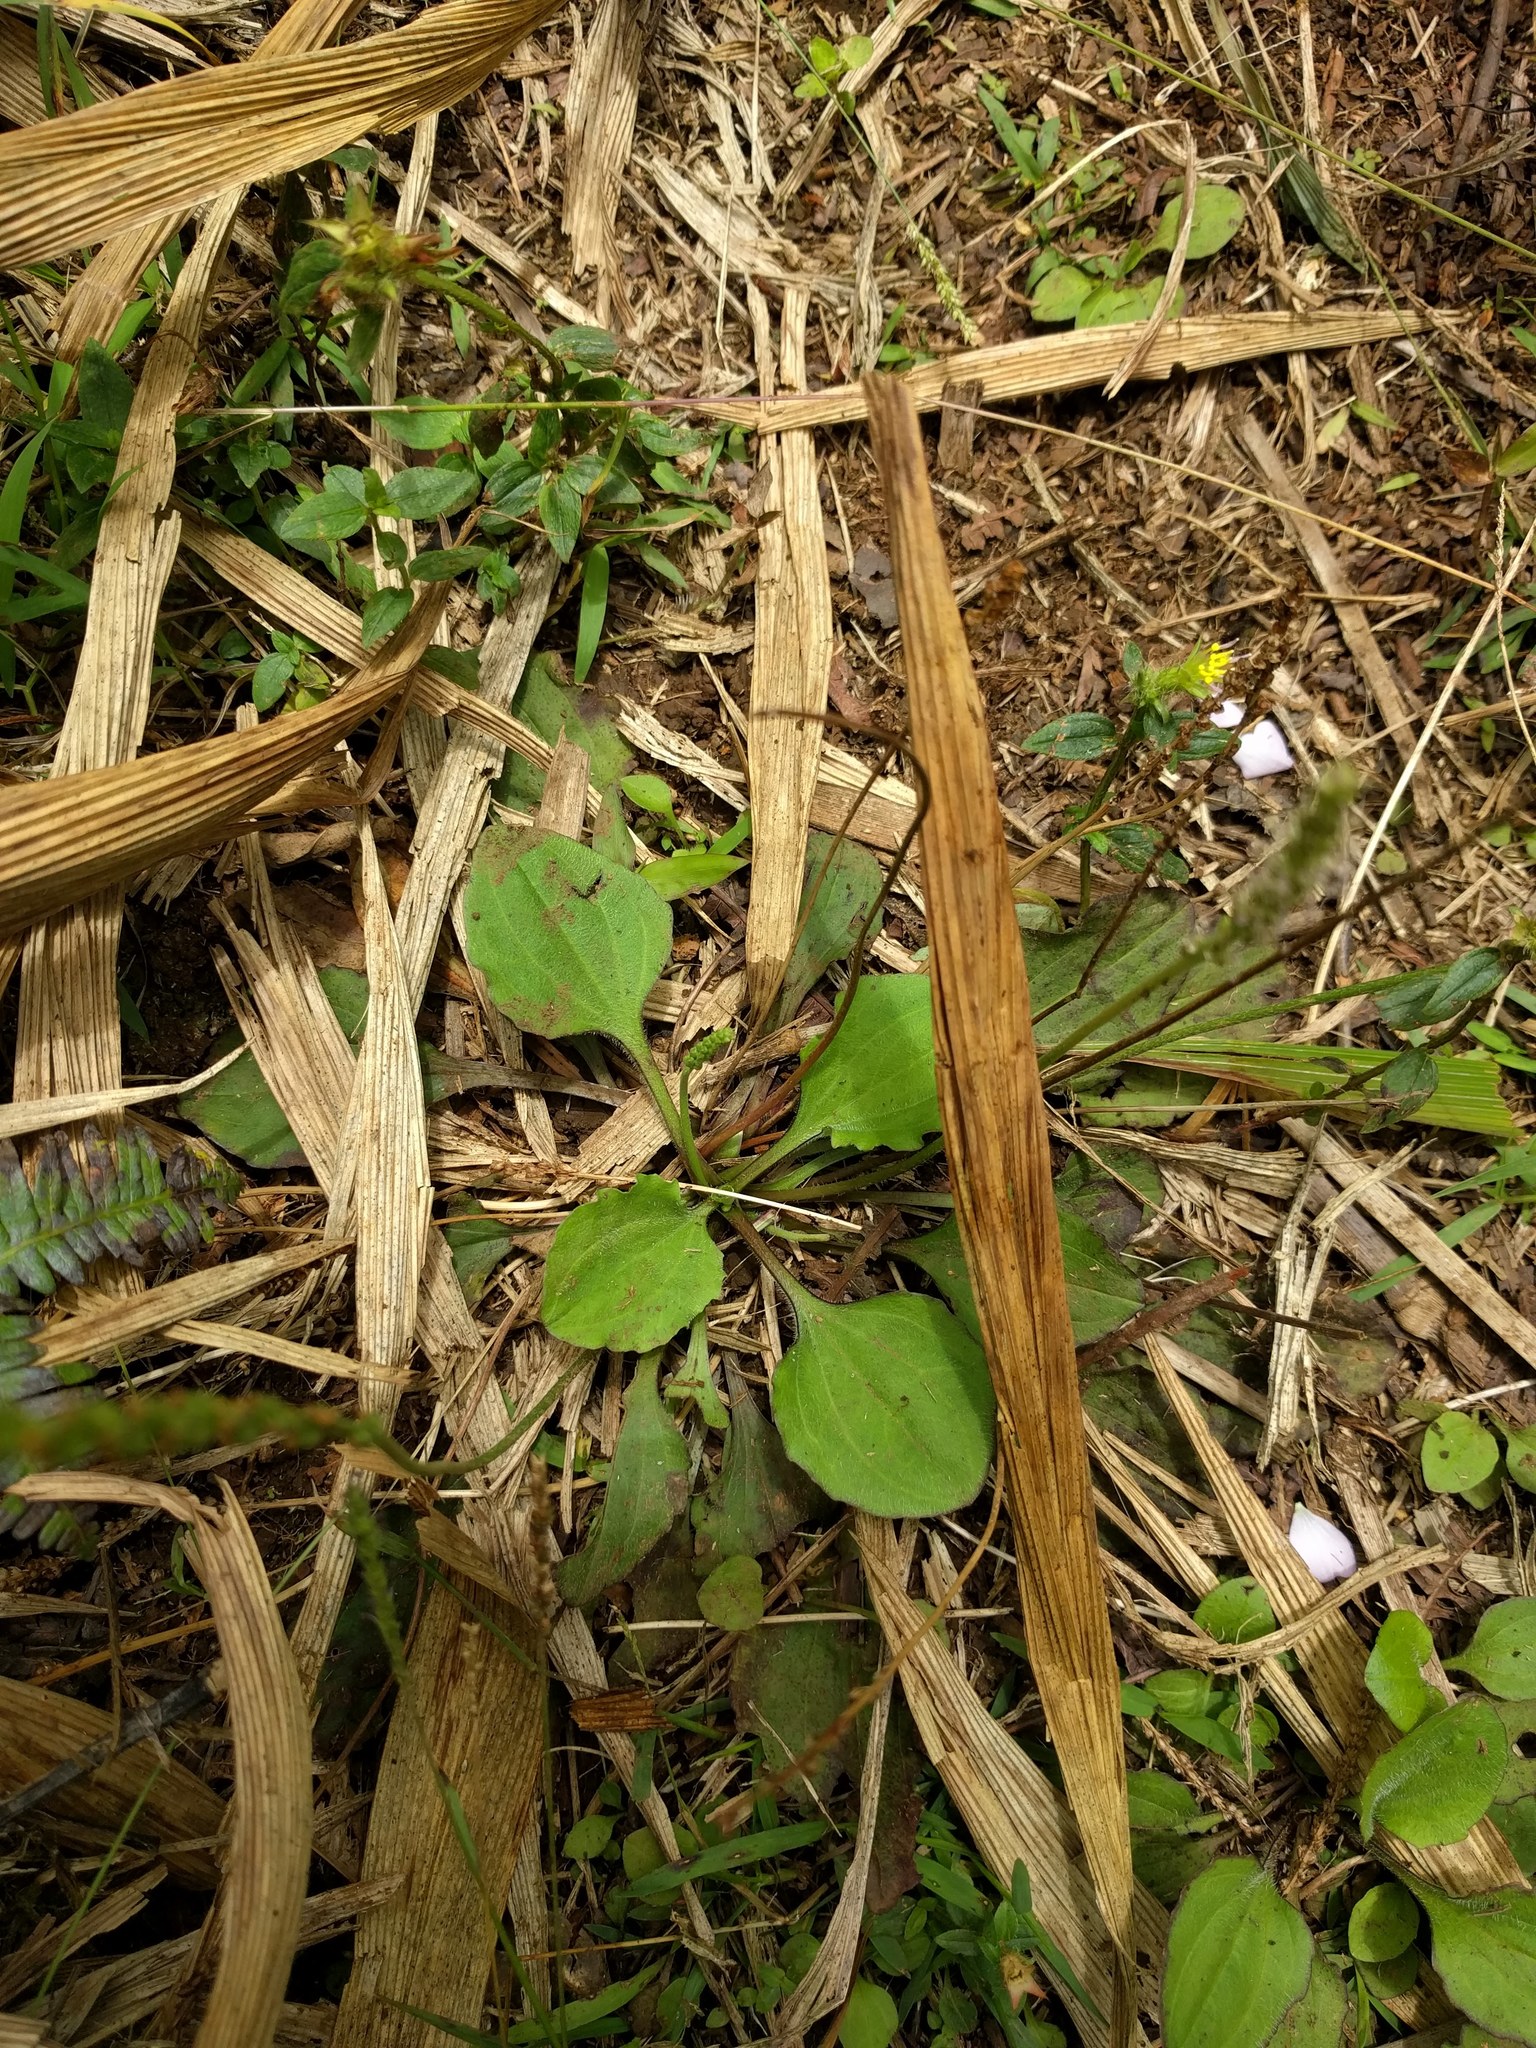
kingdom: Plantae
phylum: Tracheophyta
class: Magnoliopsida
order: Lamiales
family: Plantaginaceae
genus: Plantago
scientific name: Plantago major
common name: Common plantain
